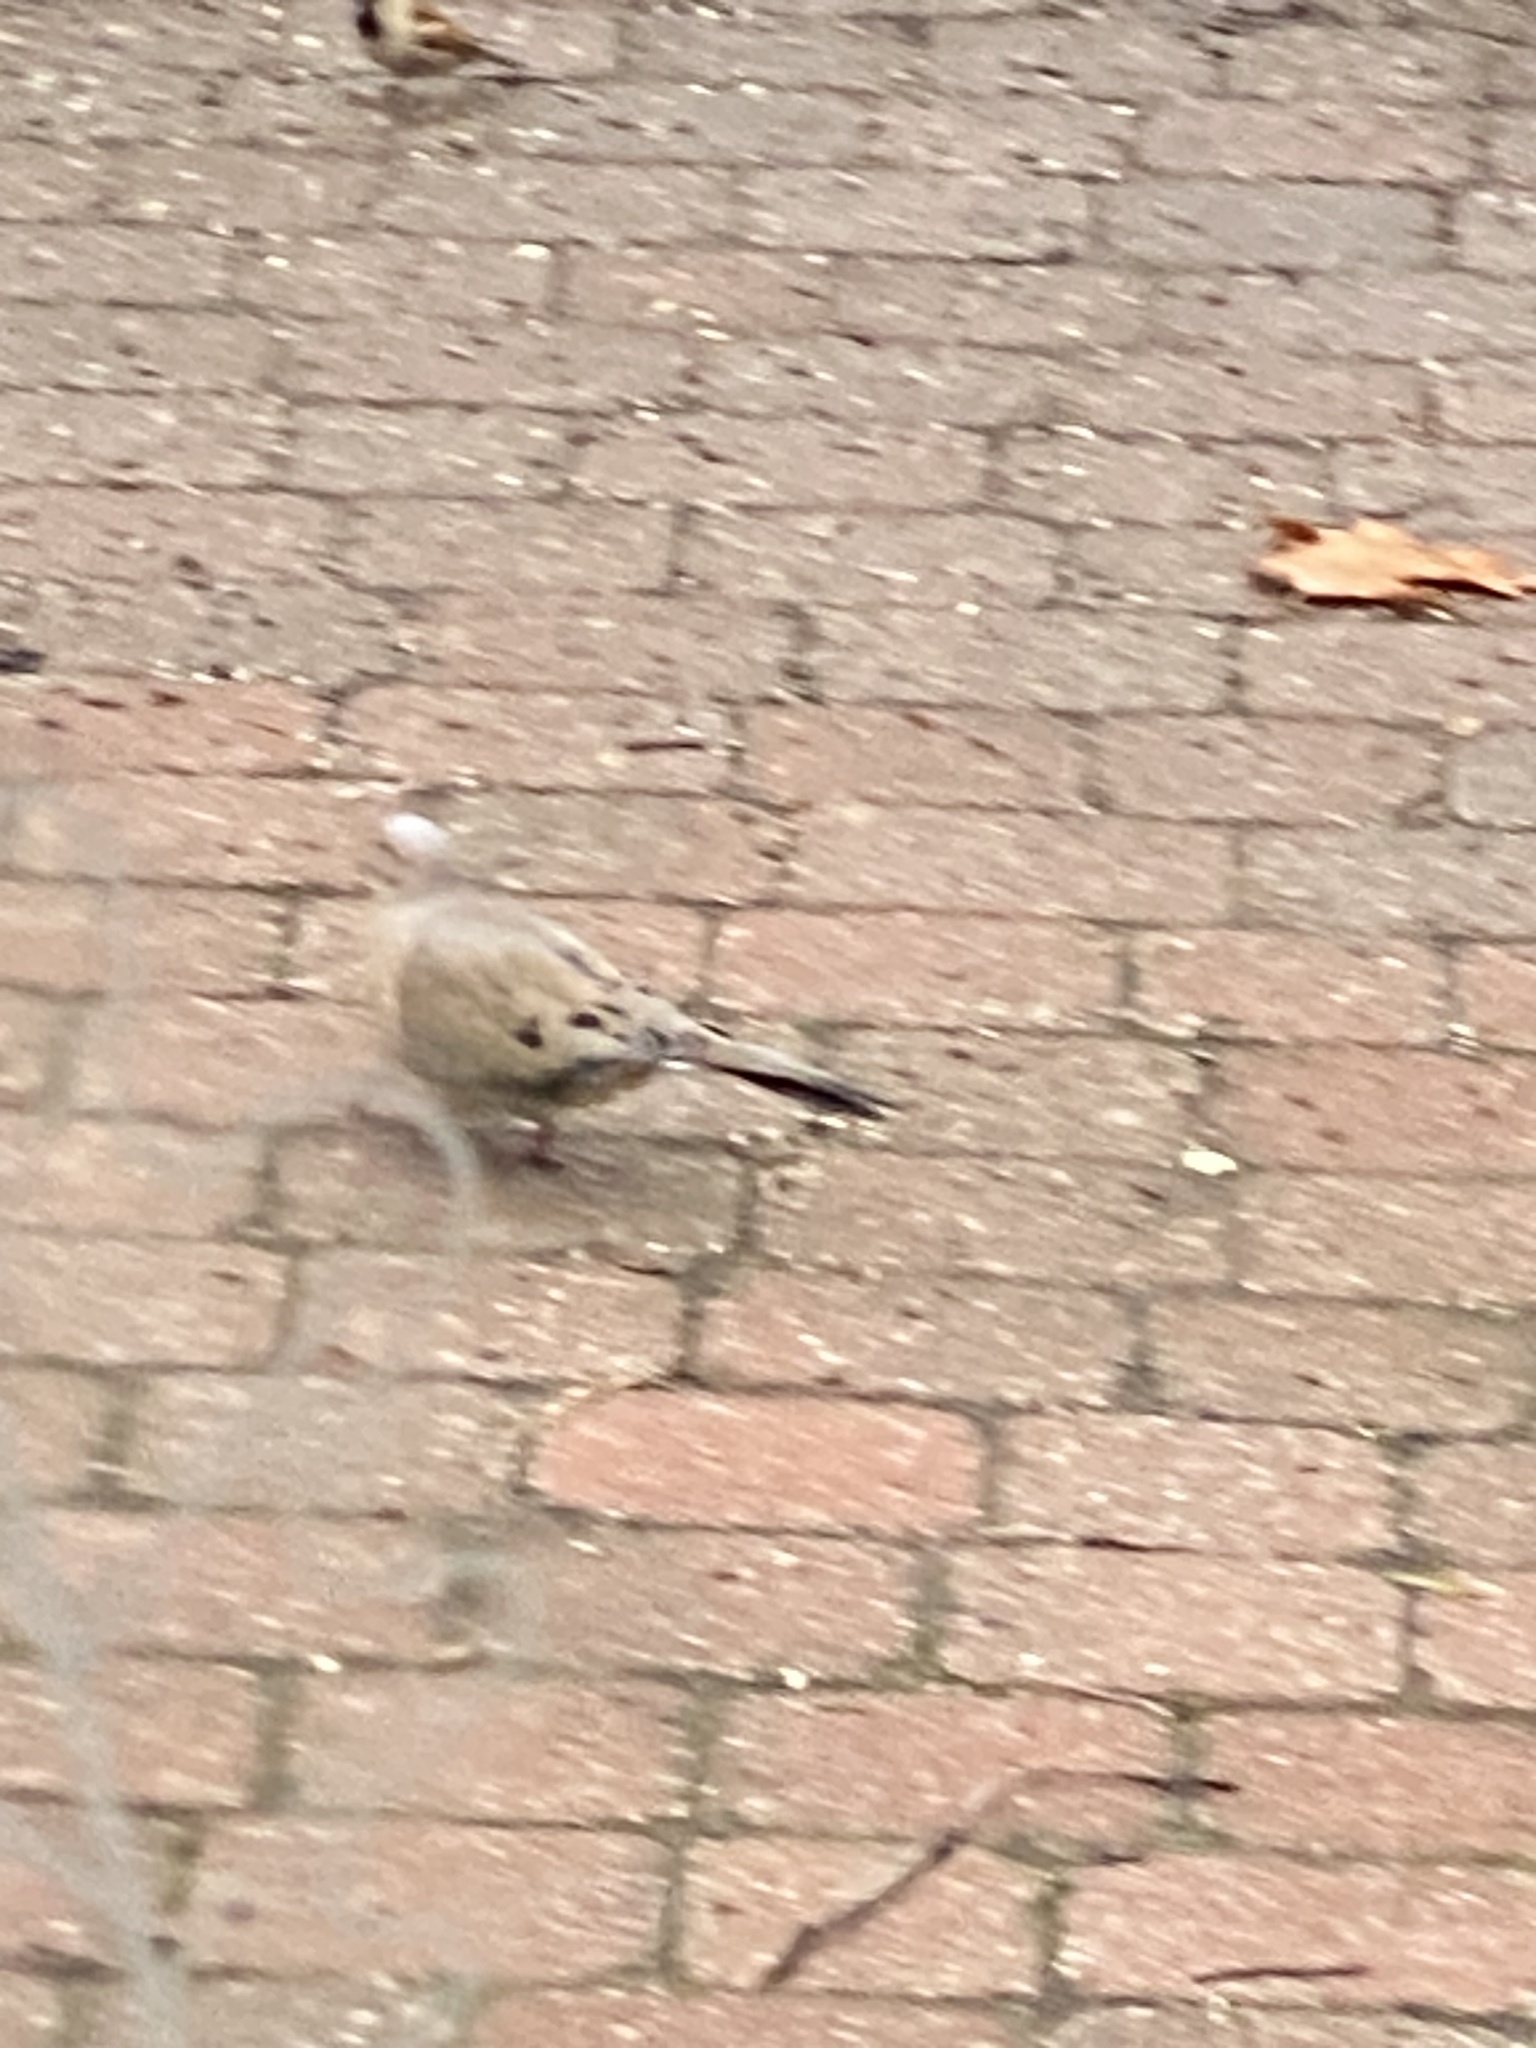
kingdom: Animalia
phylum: Chordata
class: Aves
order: Columbiformes
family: Columbidae
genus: Zenaida
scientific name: Zenaida macroura
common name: Mourning dove
